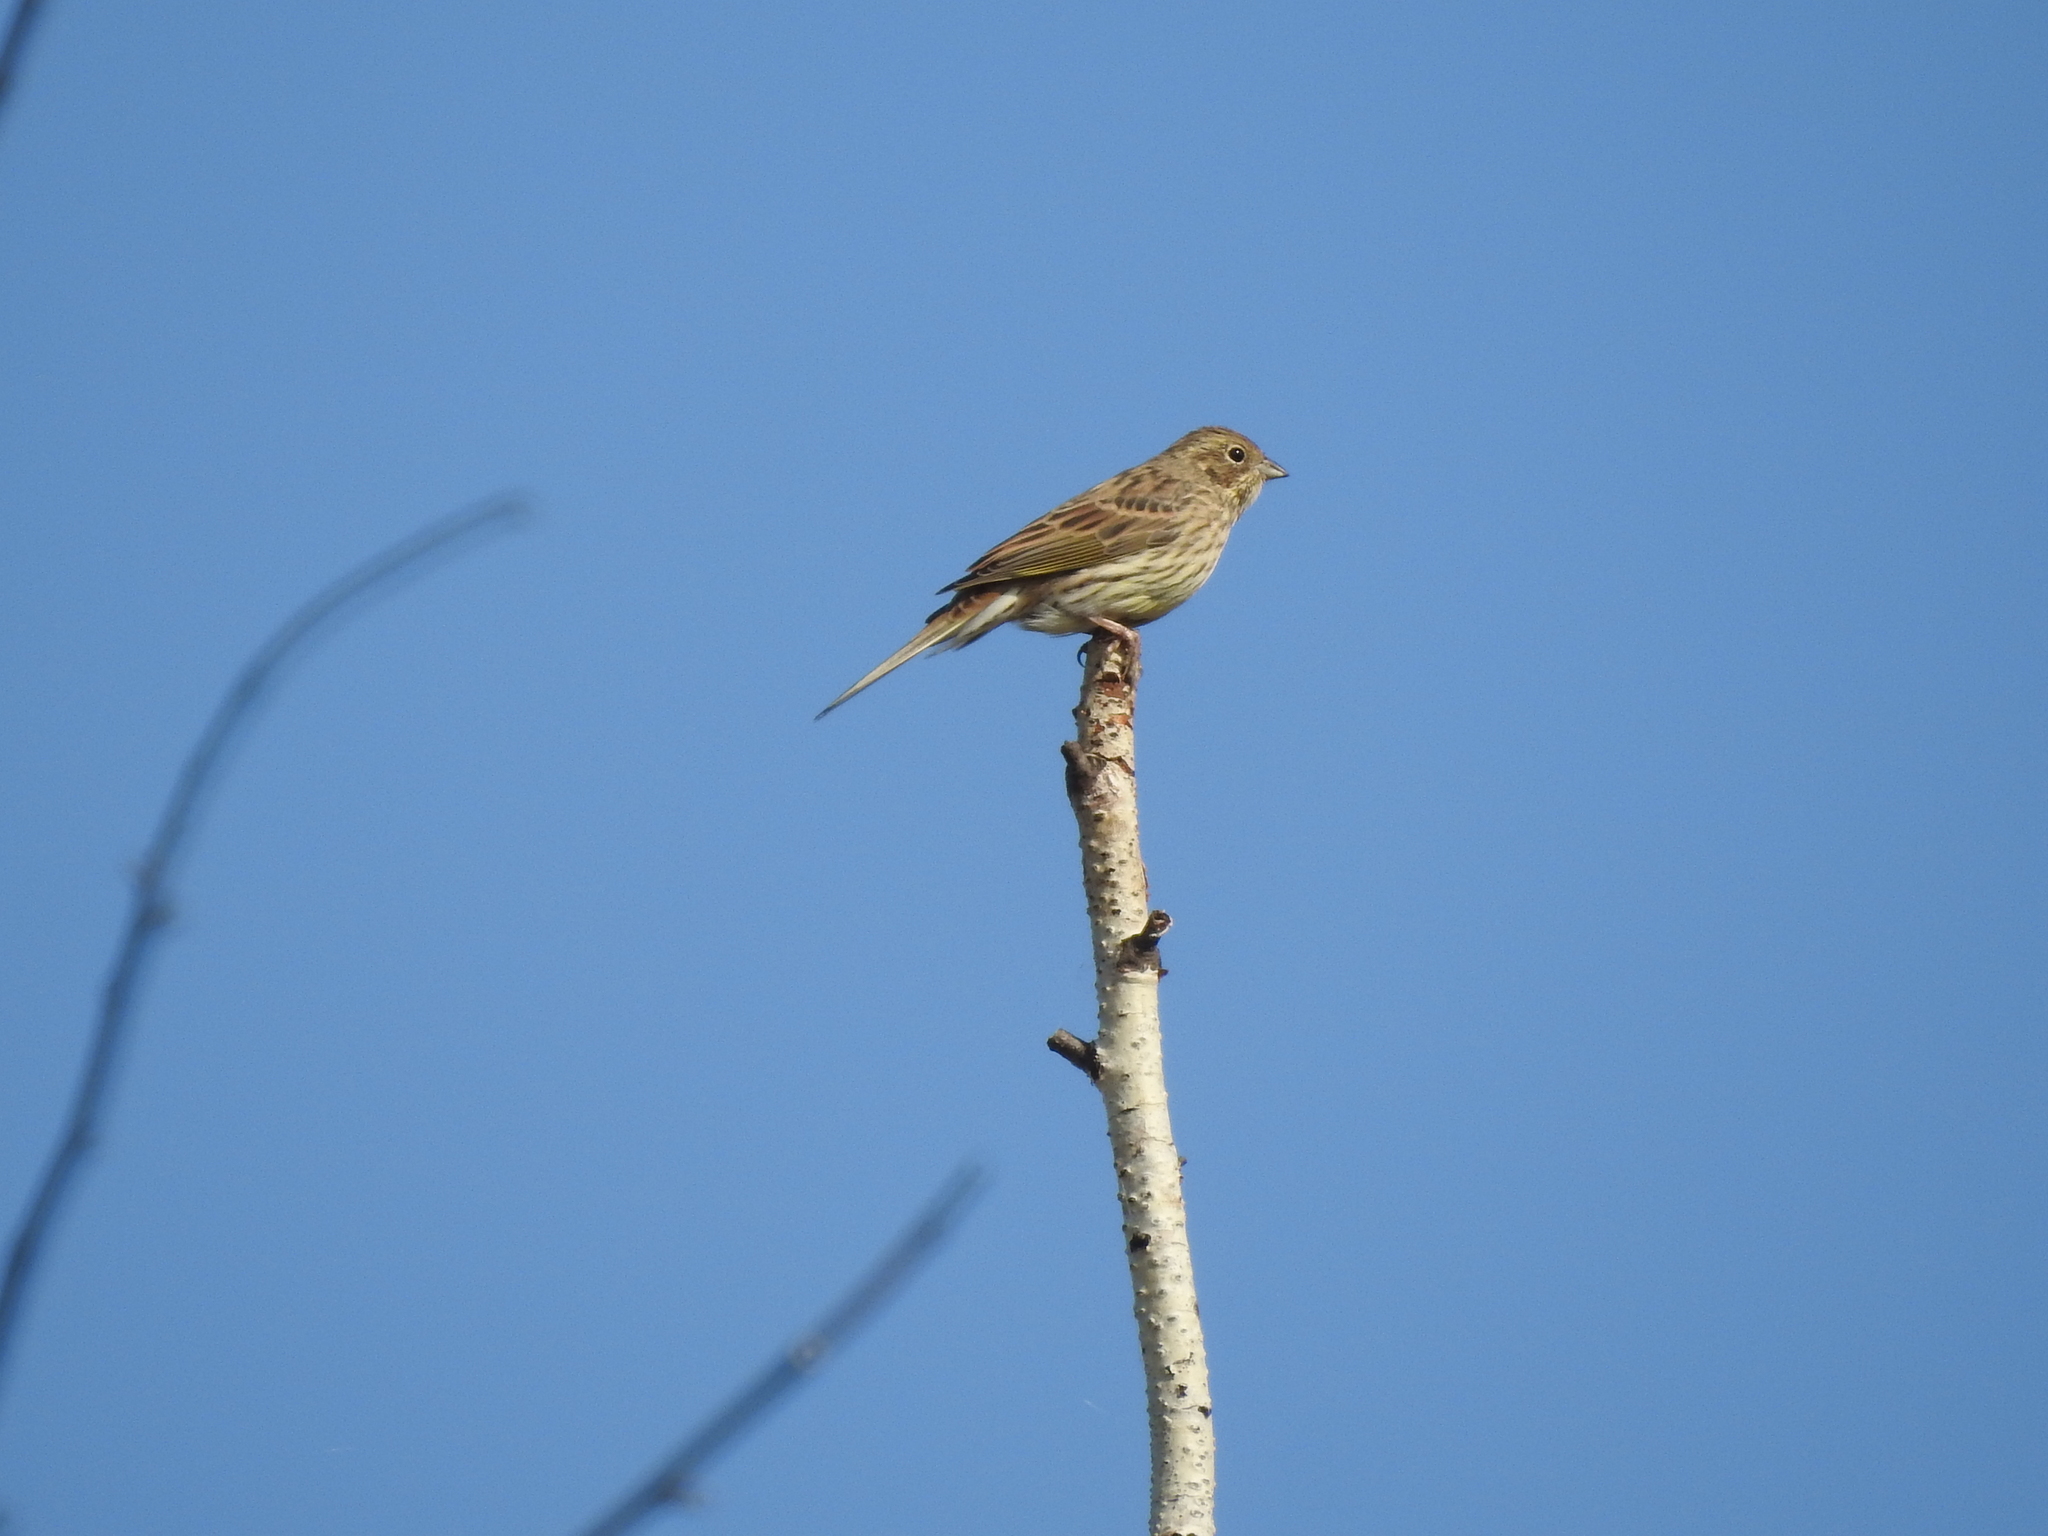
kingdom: Animalia
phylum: Chordata
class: Aves
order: Passeriformes
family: Emberizidae
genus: Emberiza
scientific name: Emberiza citrinella
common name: Yellowhammer
